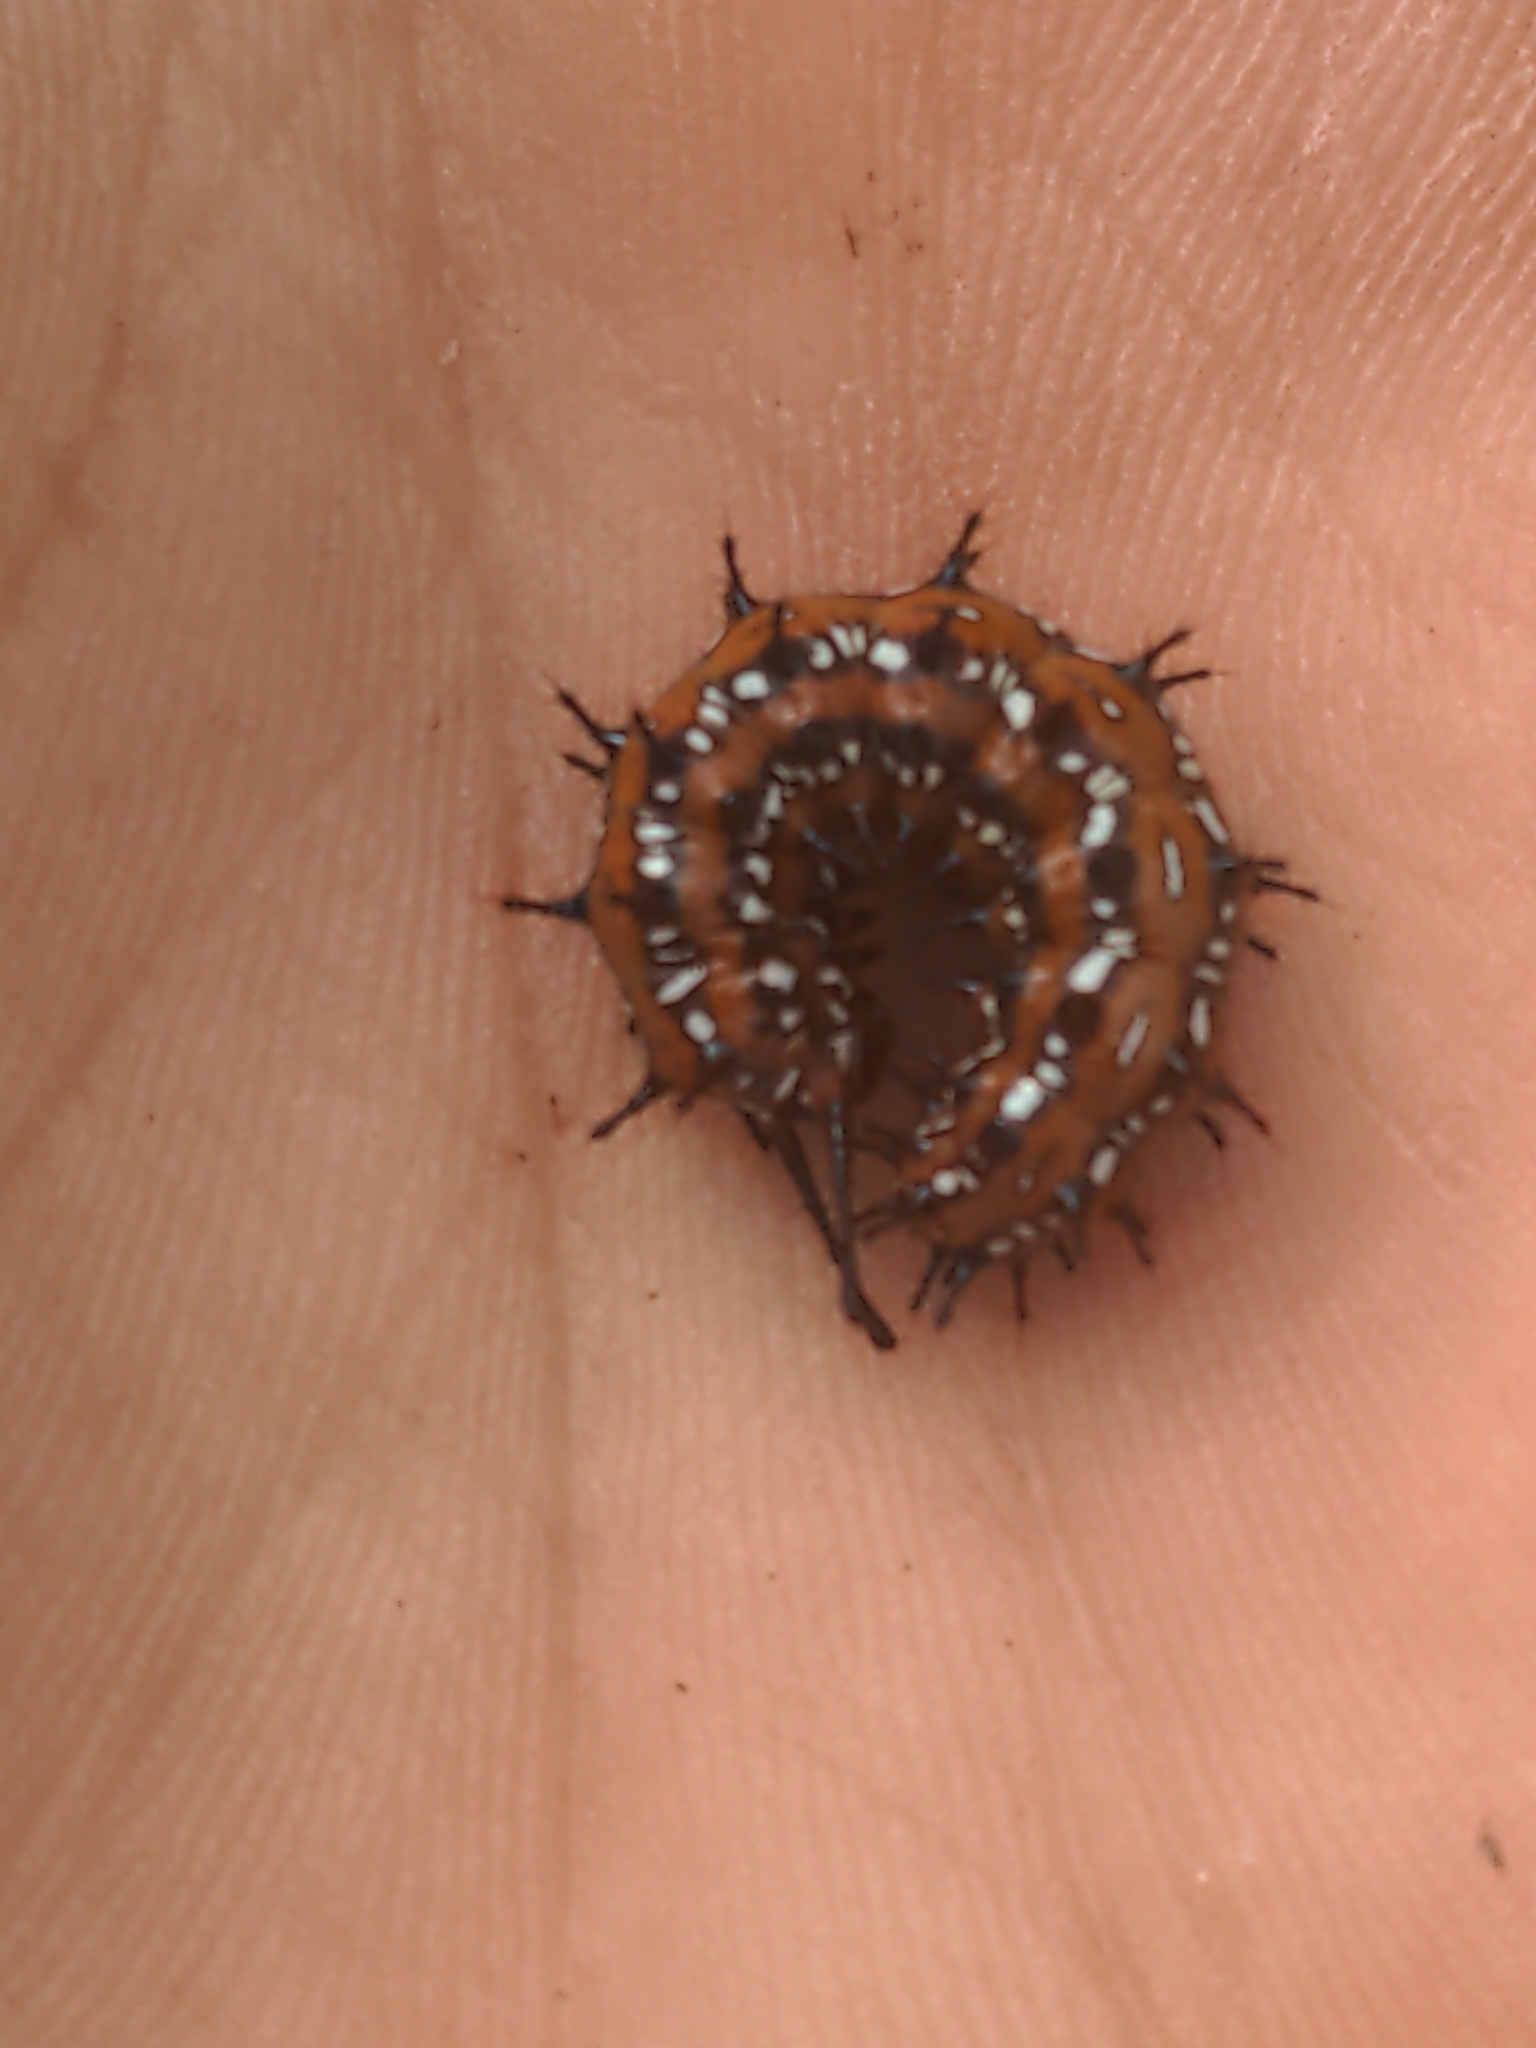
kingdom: Animalia
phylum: Arthropoda
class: Insecta
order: Lepidoptera
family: Nymphalidae
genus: Euptoieta
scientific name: Euptoieta claudia
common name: Variegated fritillary
